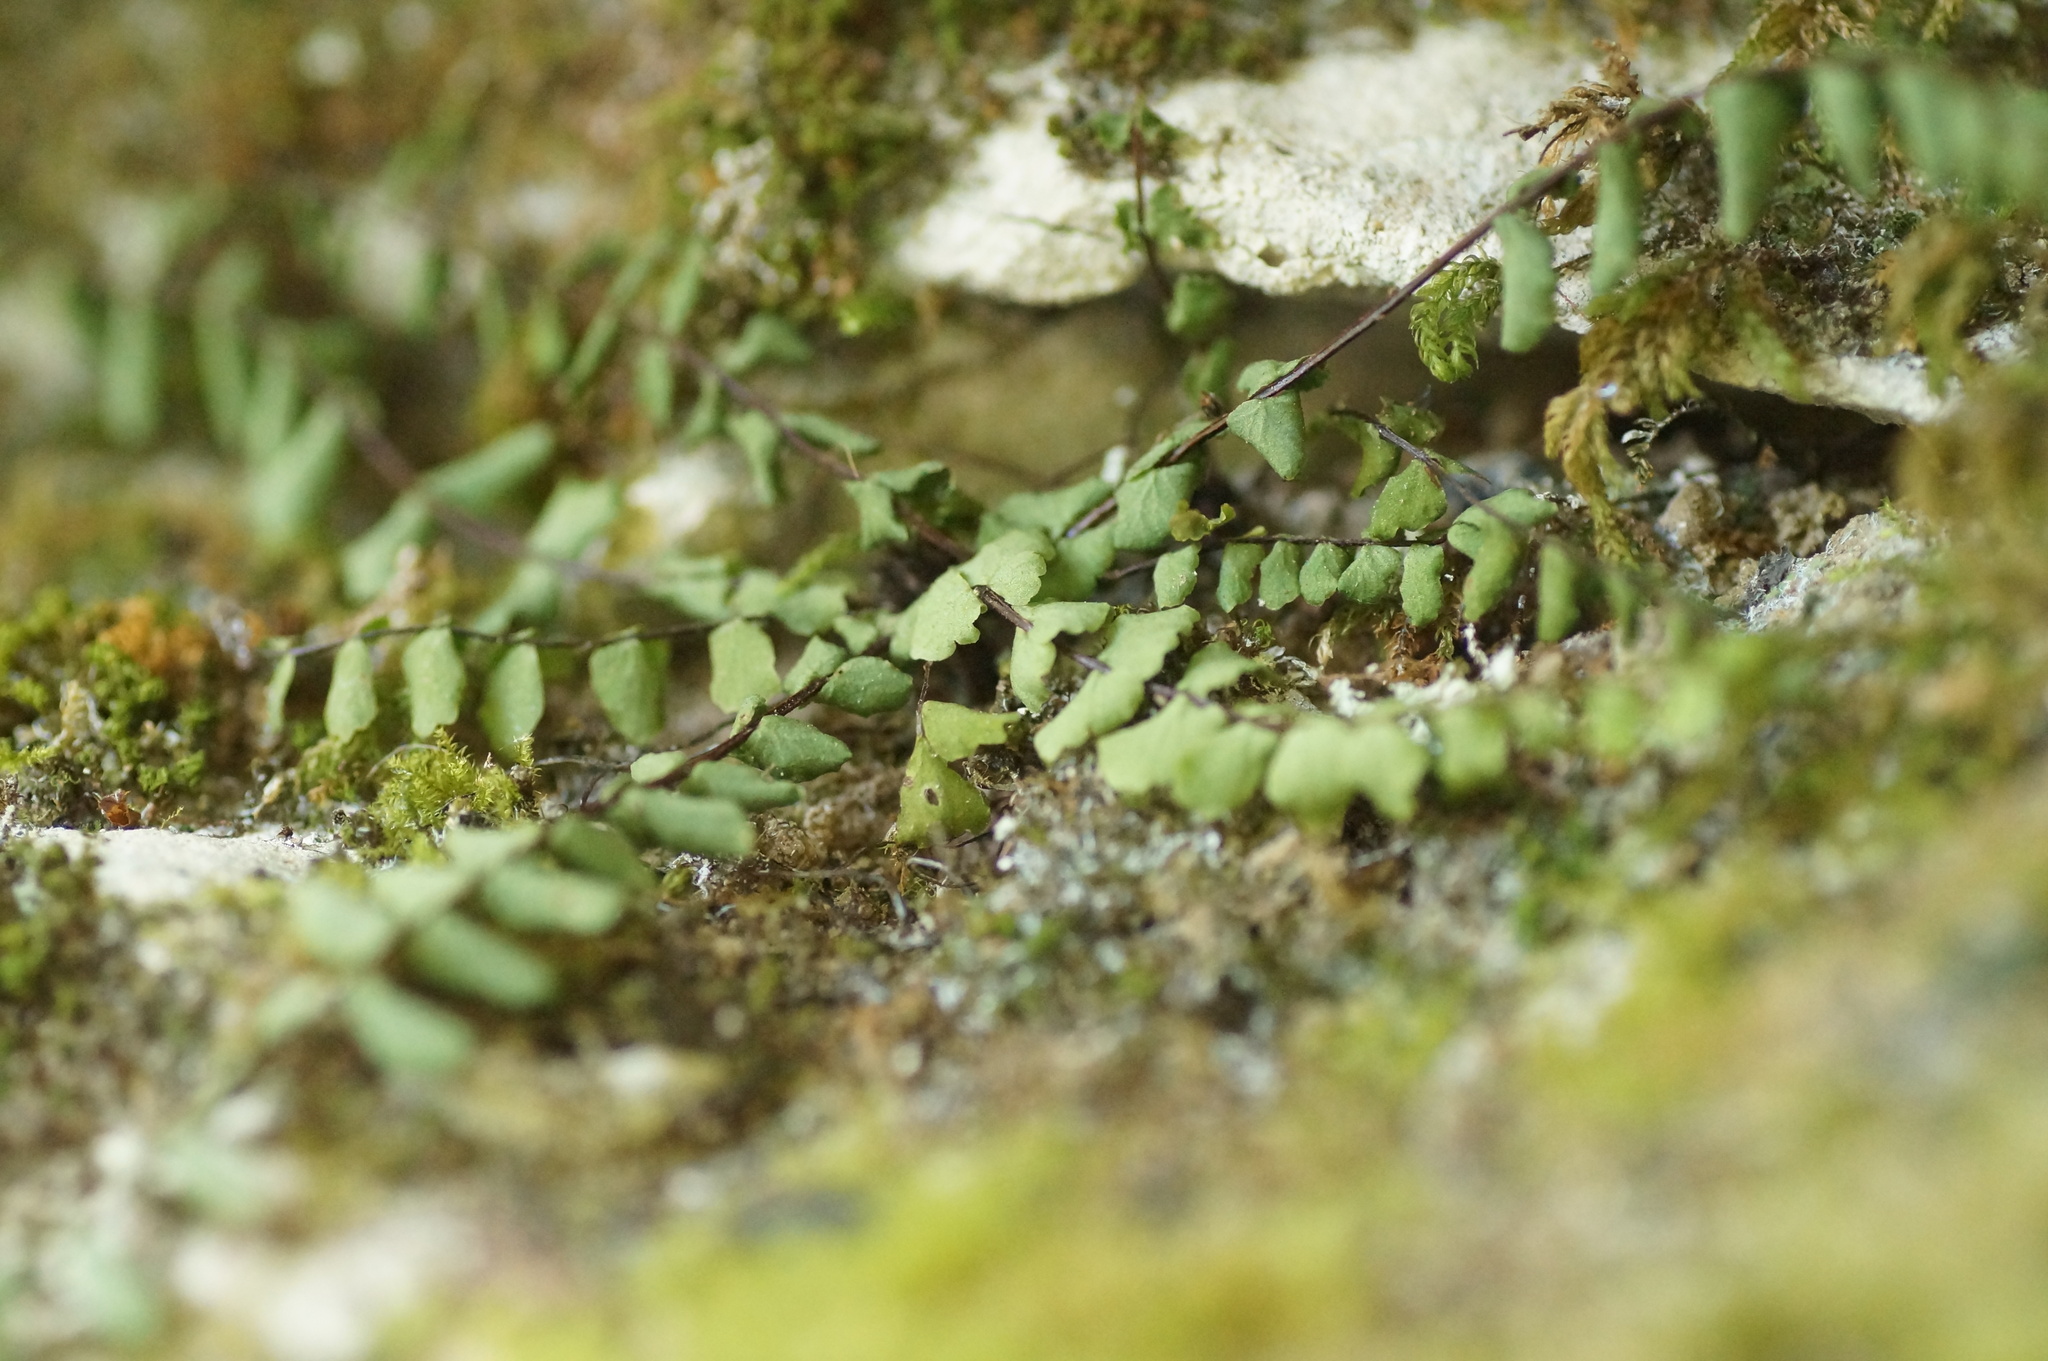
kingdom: Plantae
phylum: Tracheophyta
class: Polypodiopsida
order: Polypodiales
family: Aspleniaceae
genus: Asplenium
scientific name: Asplenium trichomanes
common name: Maidenhair spleenwort
